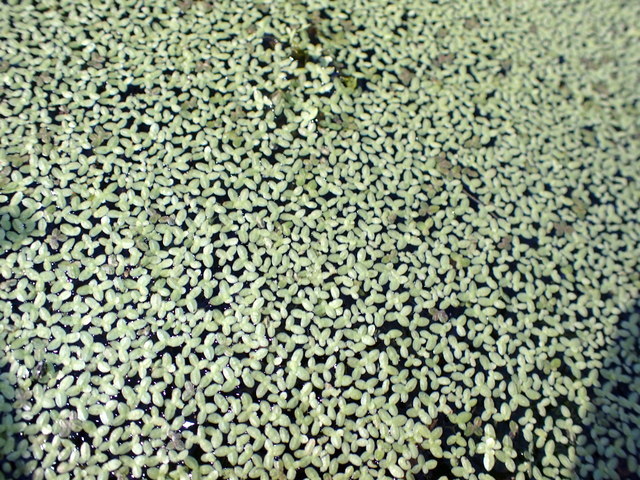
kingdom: Plantae
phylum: Tracheophyta
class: Liliopsida
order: Alismatales
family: Araceae
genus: Lemna
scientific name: Lemna minor
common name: Common duckweed
